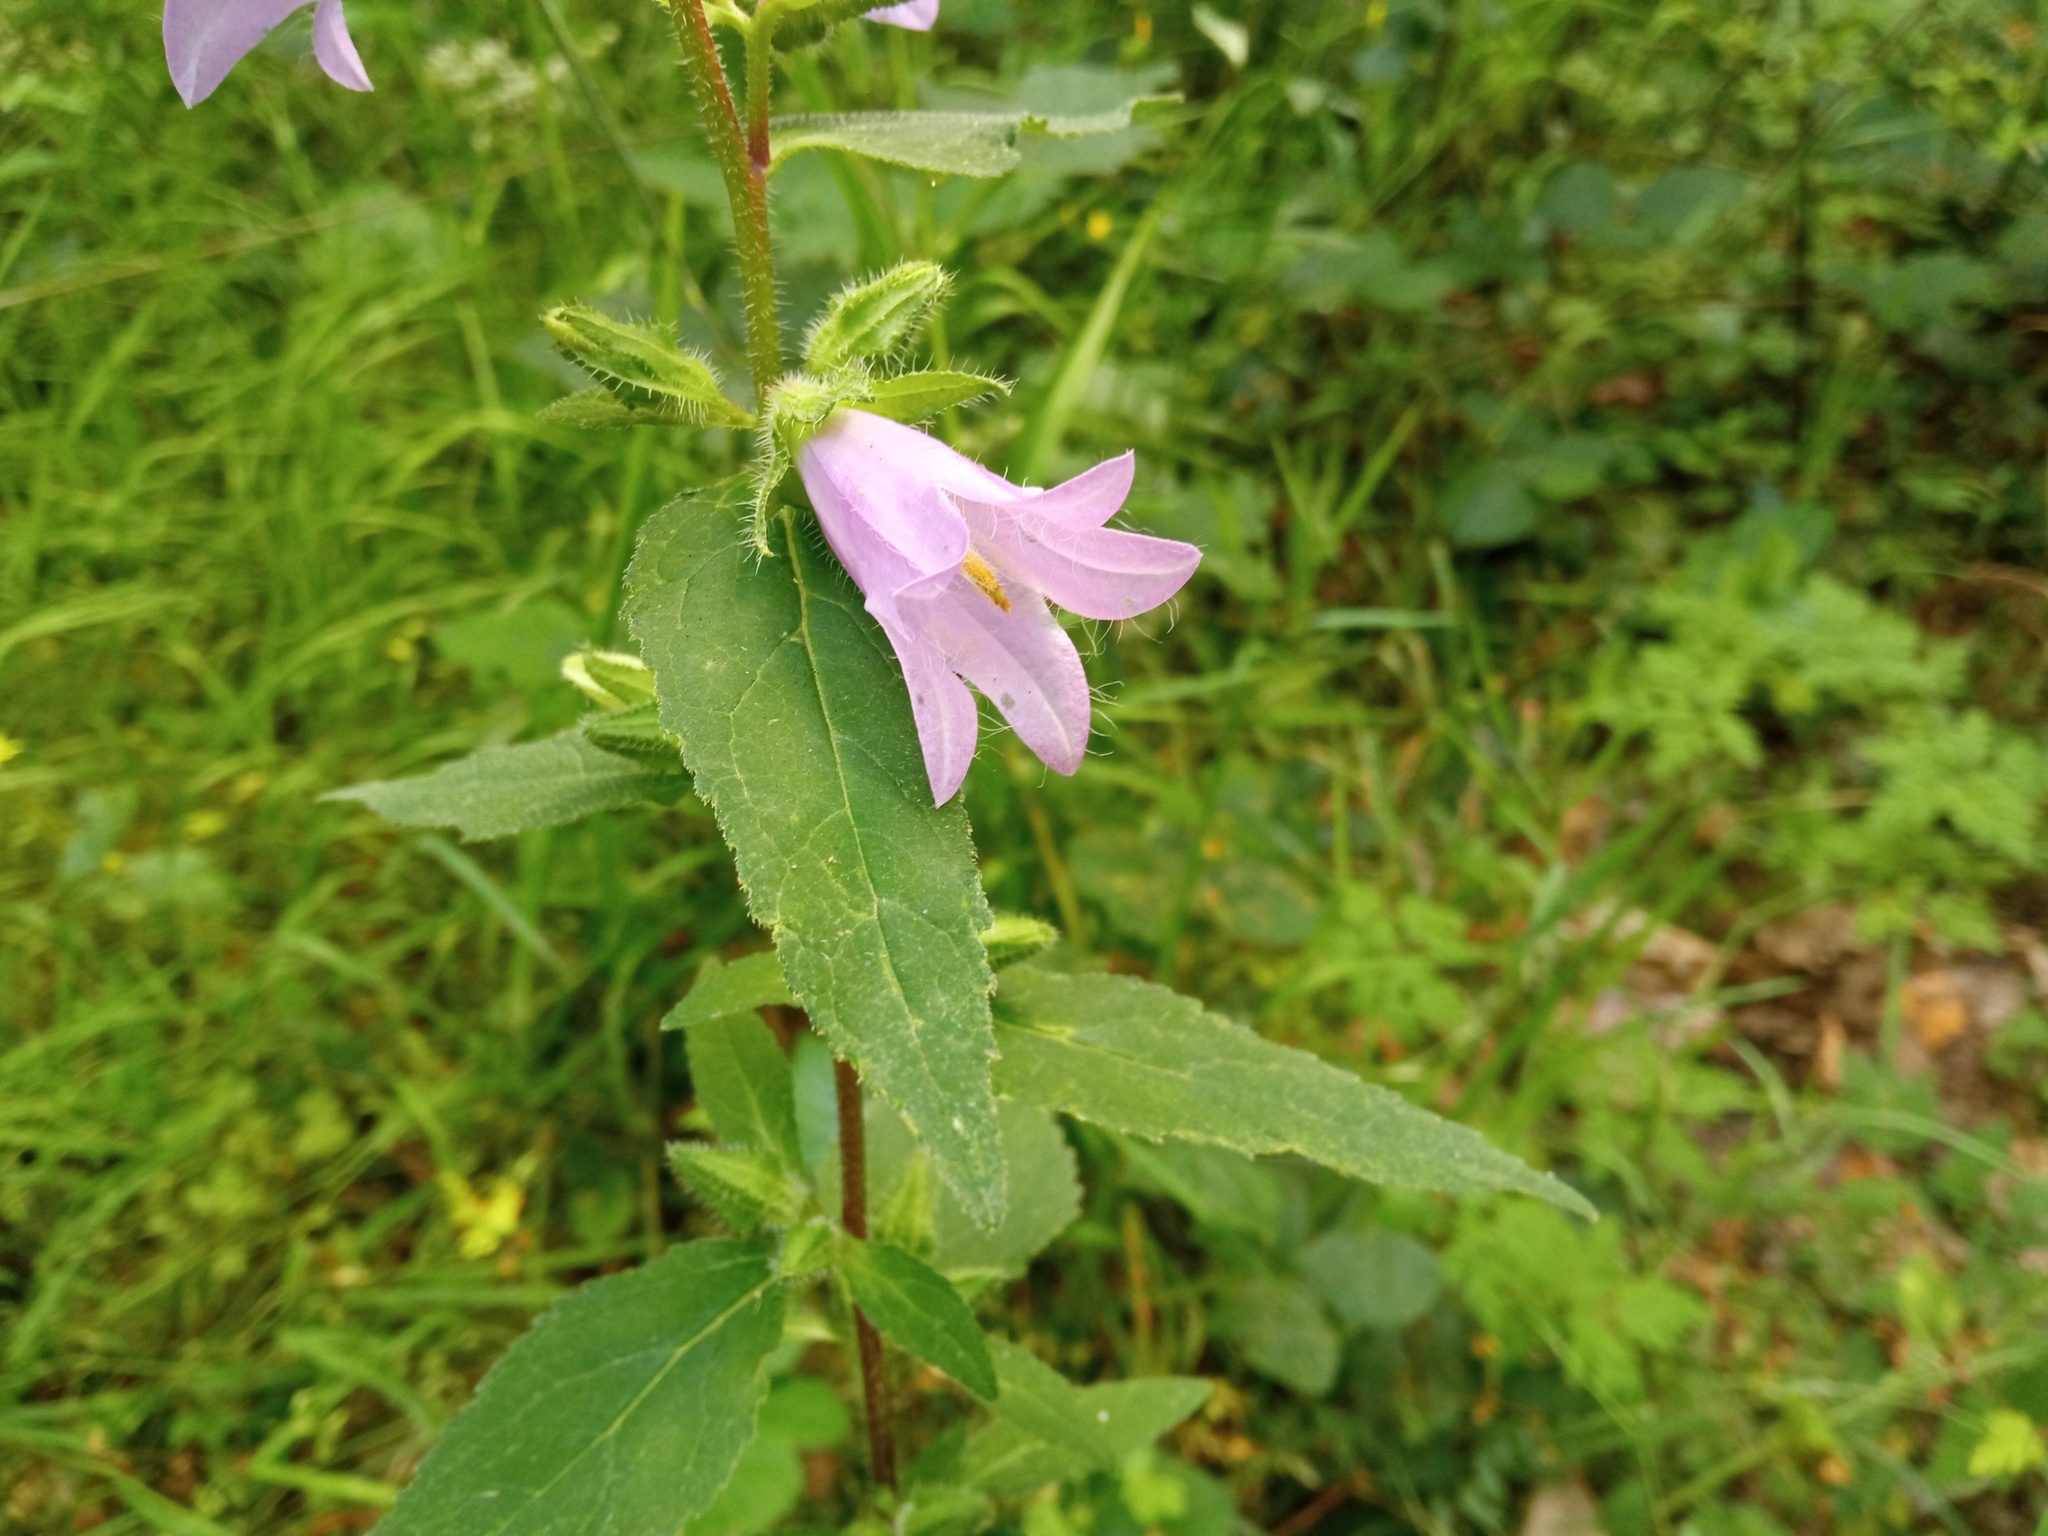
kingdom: Plantae
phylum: Tracheophyta
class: Magnoliopsida
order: Asterales
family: Campanulaceae
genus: Campanula
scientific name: Campanula trachelium
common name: Nettle-leaved bellflower
